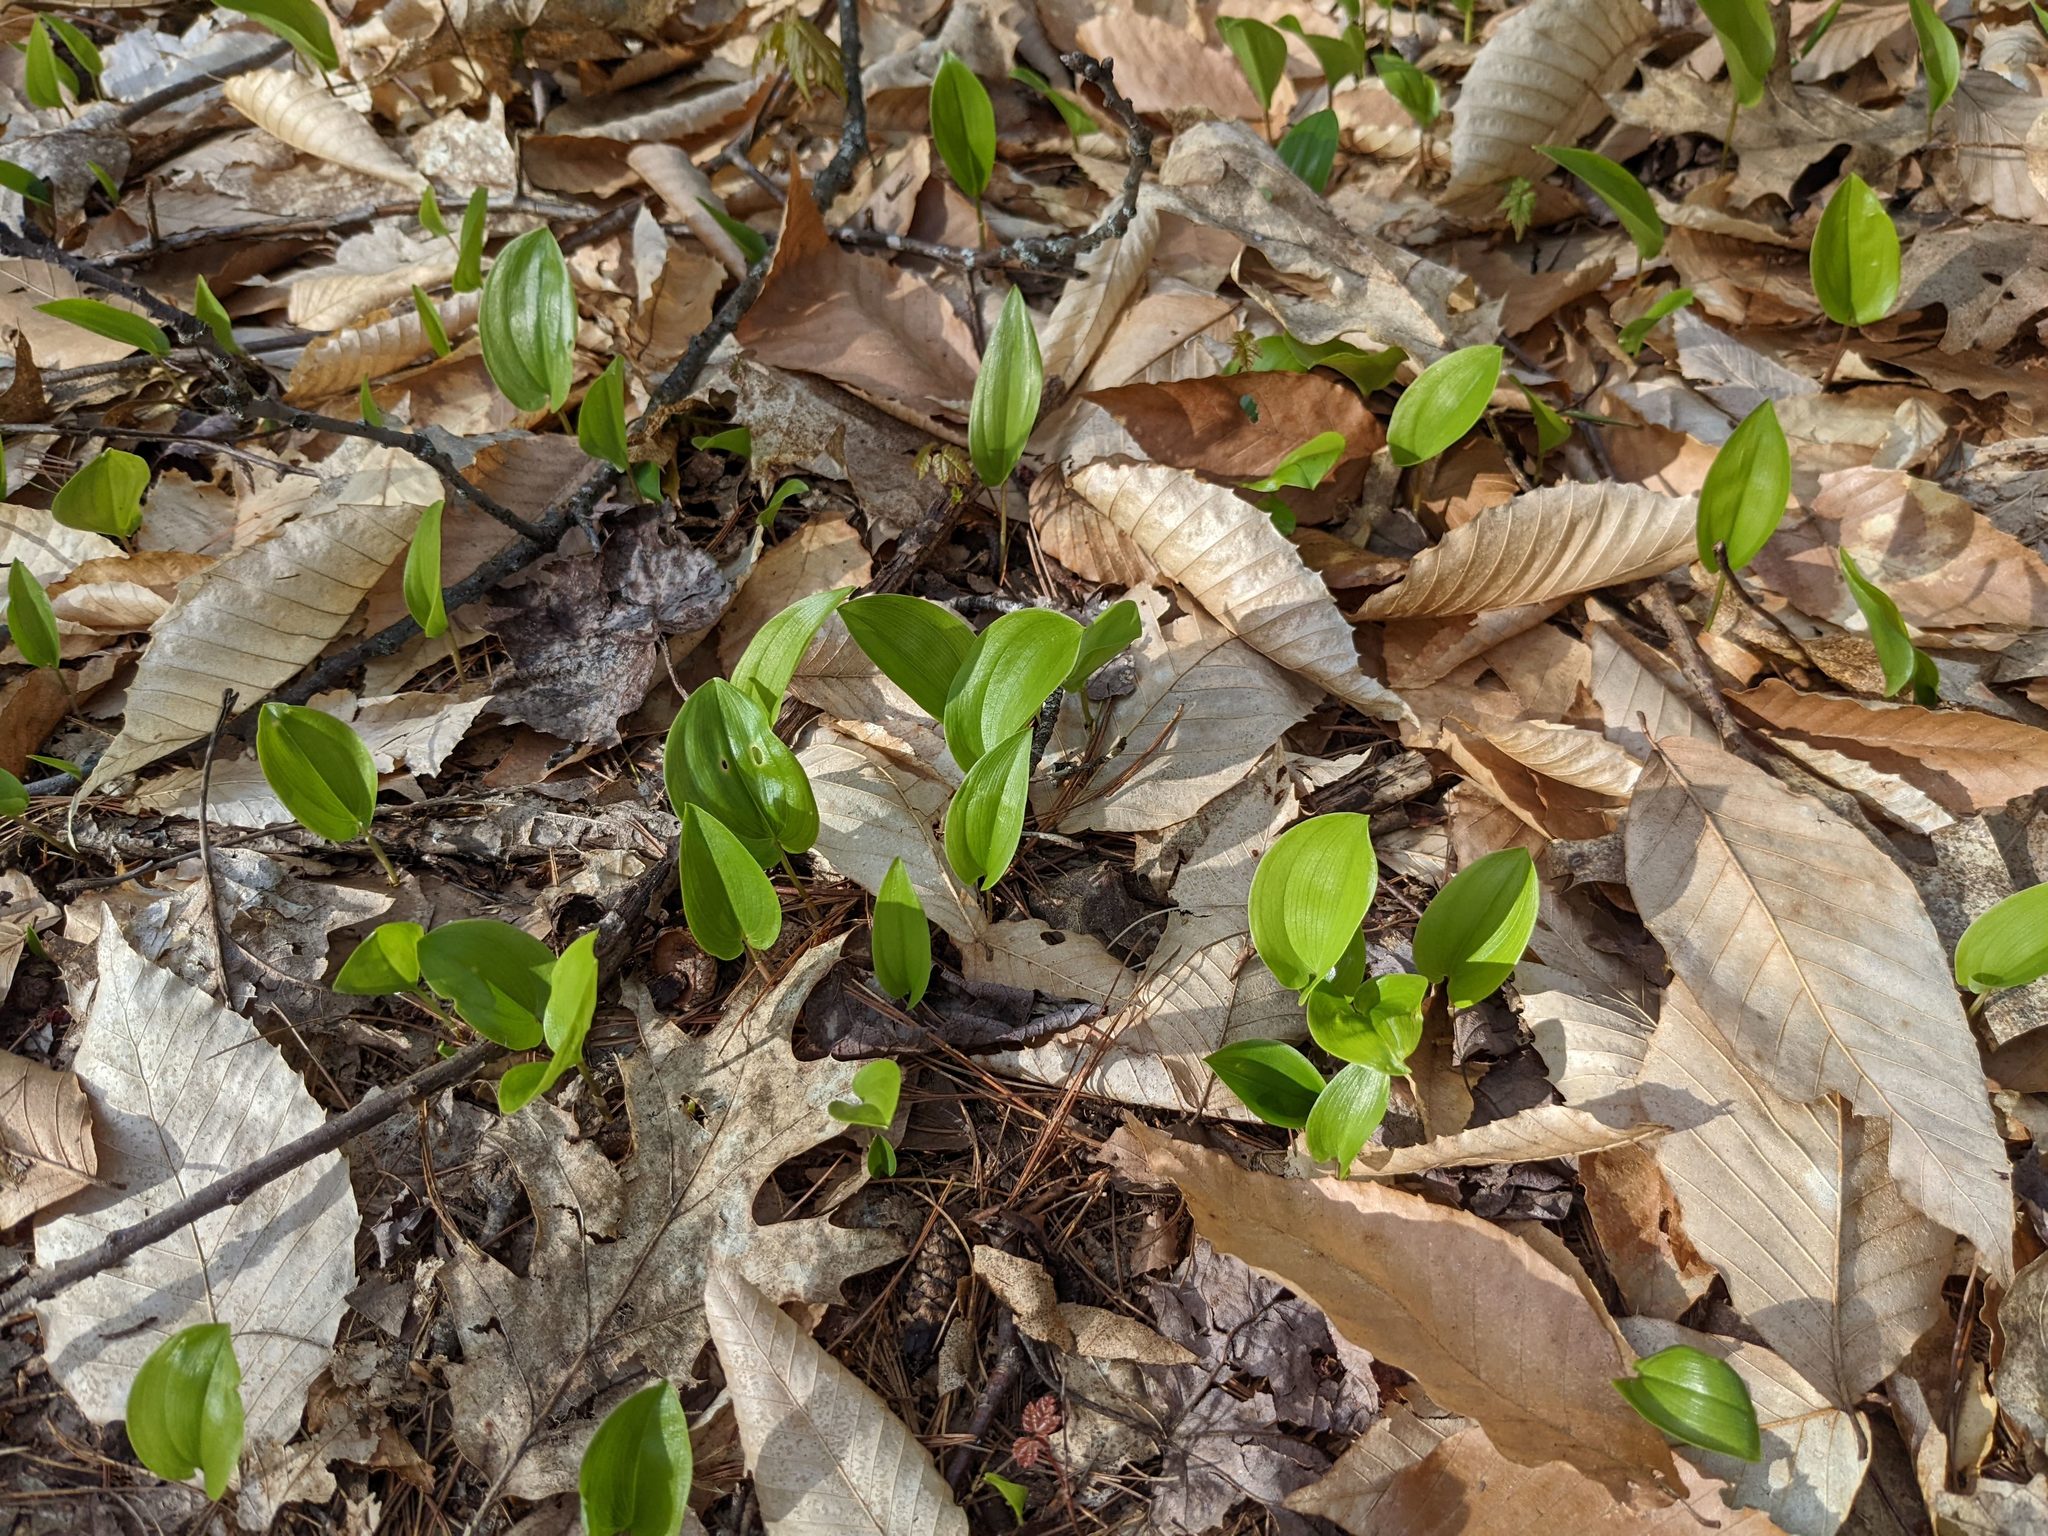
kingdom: Plantae
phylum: Tracheophyta
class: Liliopsida
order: Asparagales
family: Asparagaceae
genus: Maianthemum
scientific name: Maianthemum canadense
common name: False lily-of-the-valley
